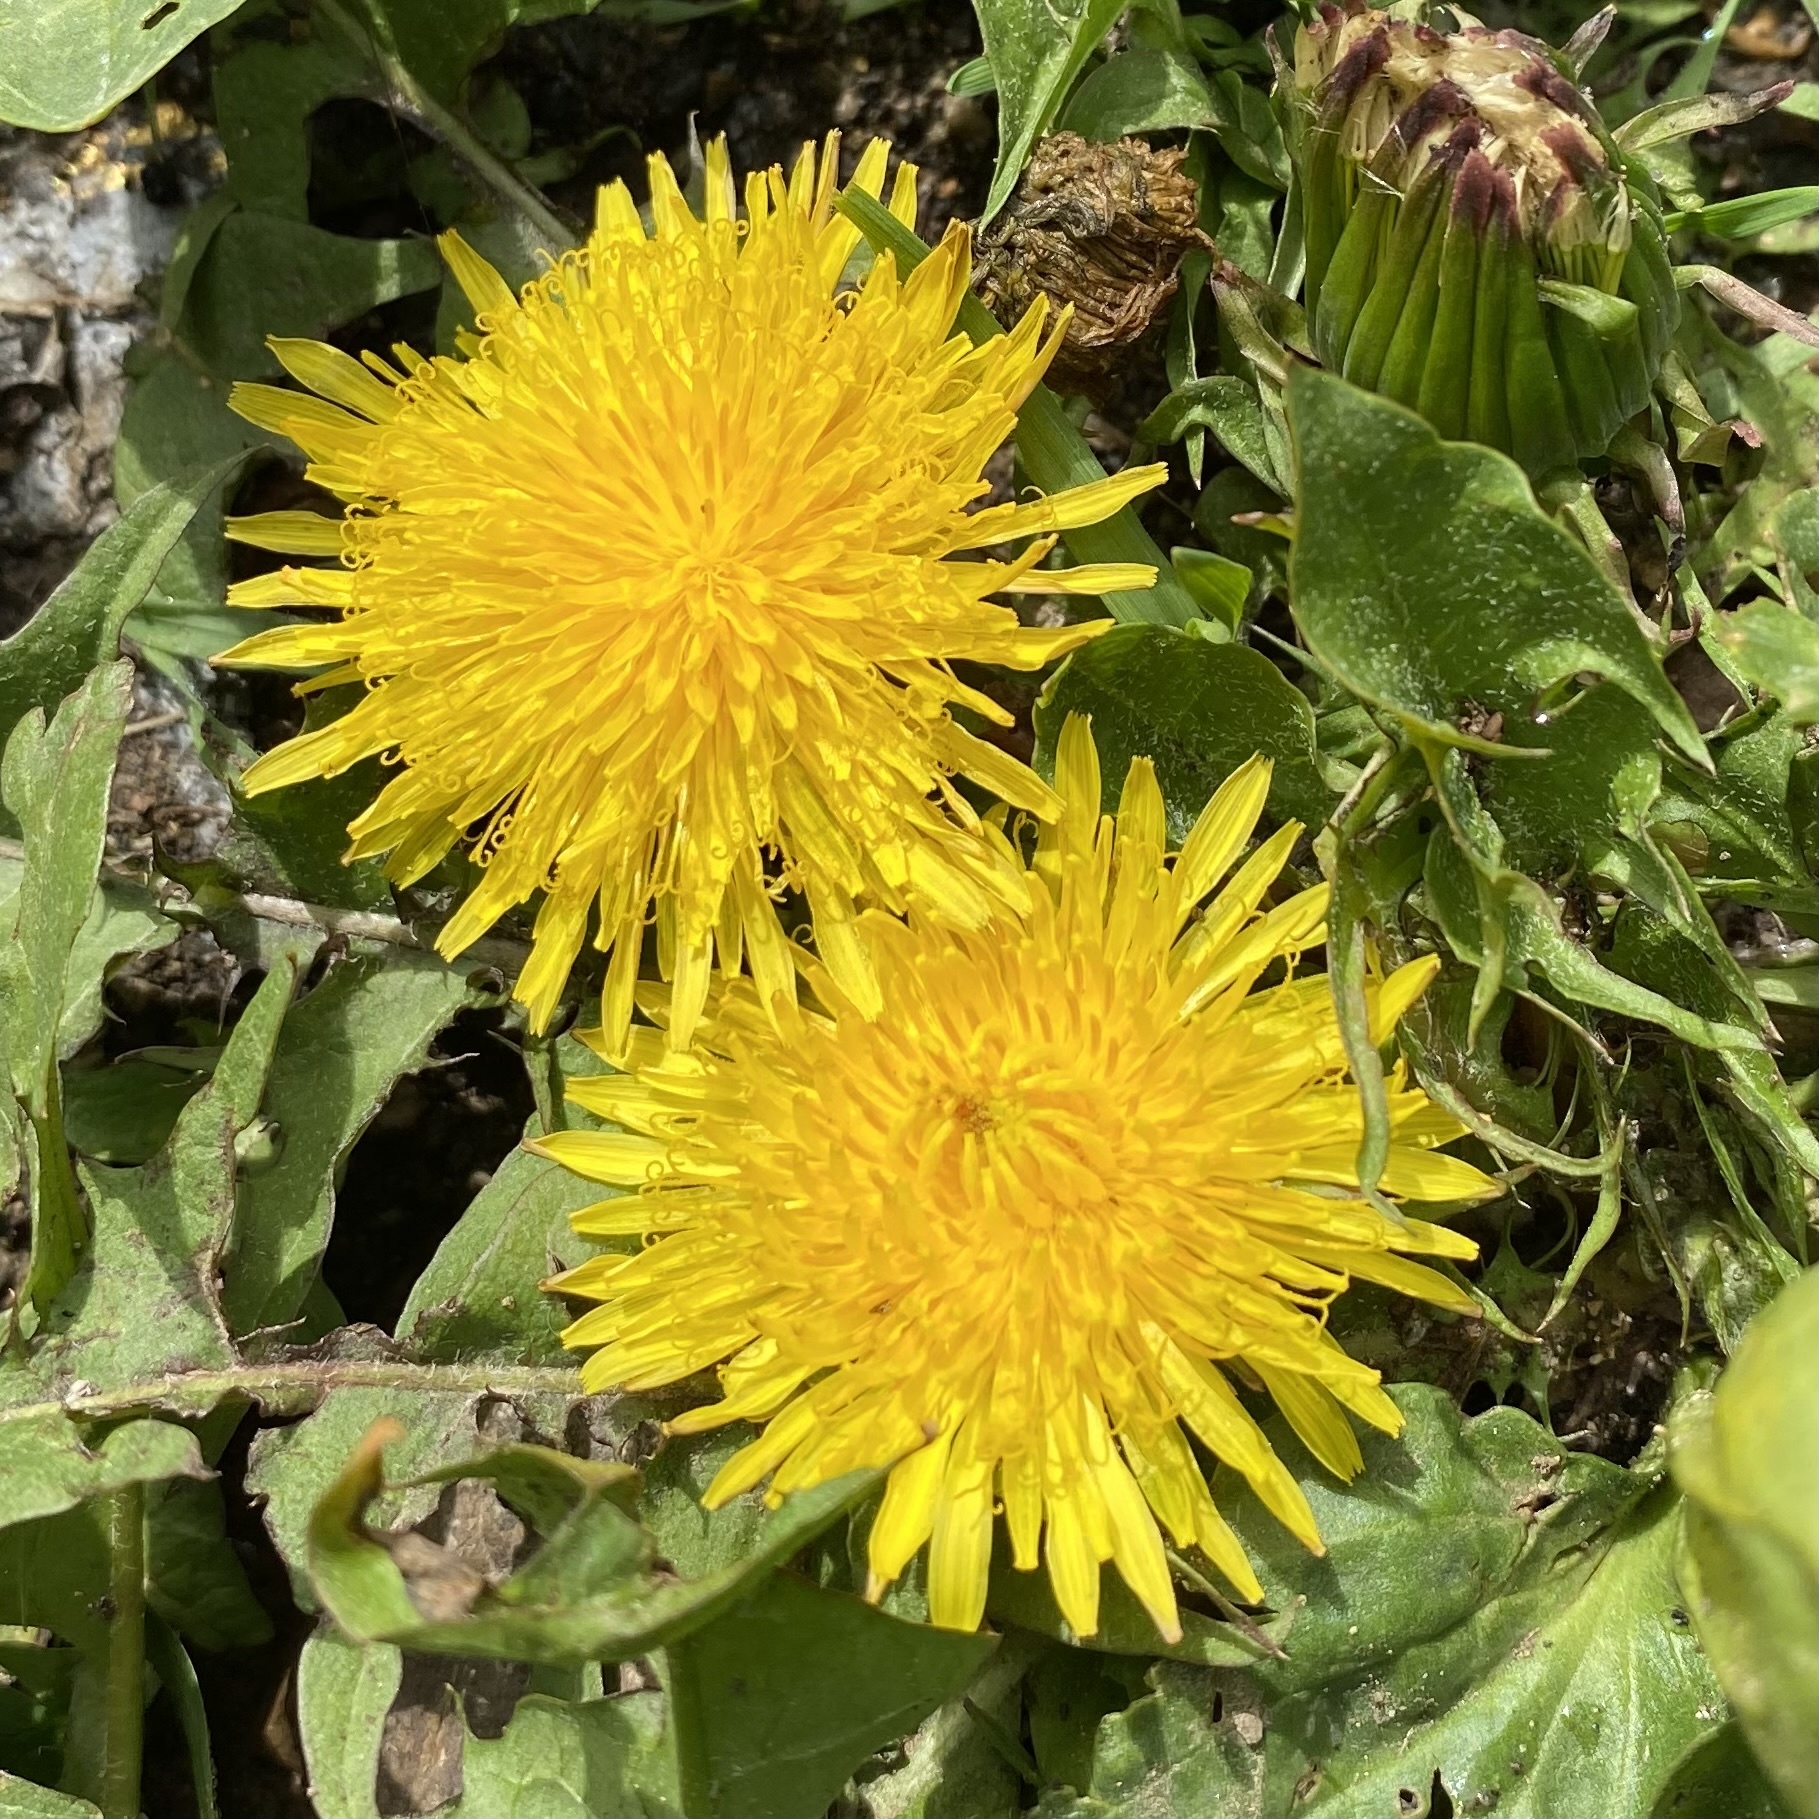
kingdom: Plantae
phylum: Tracheophyta
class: Magnoliopsida
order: Asterales
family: Asteraceae
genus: Taraxacum
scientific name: Taraxacum officinale
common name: Common dandelion
